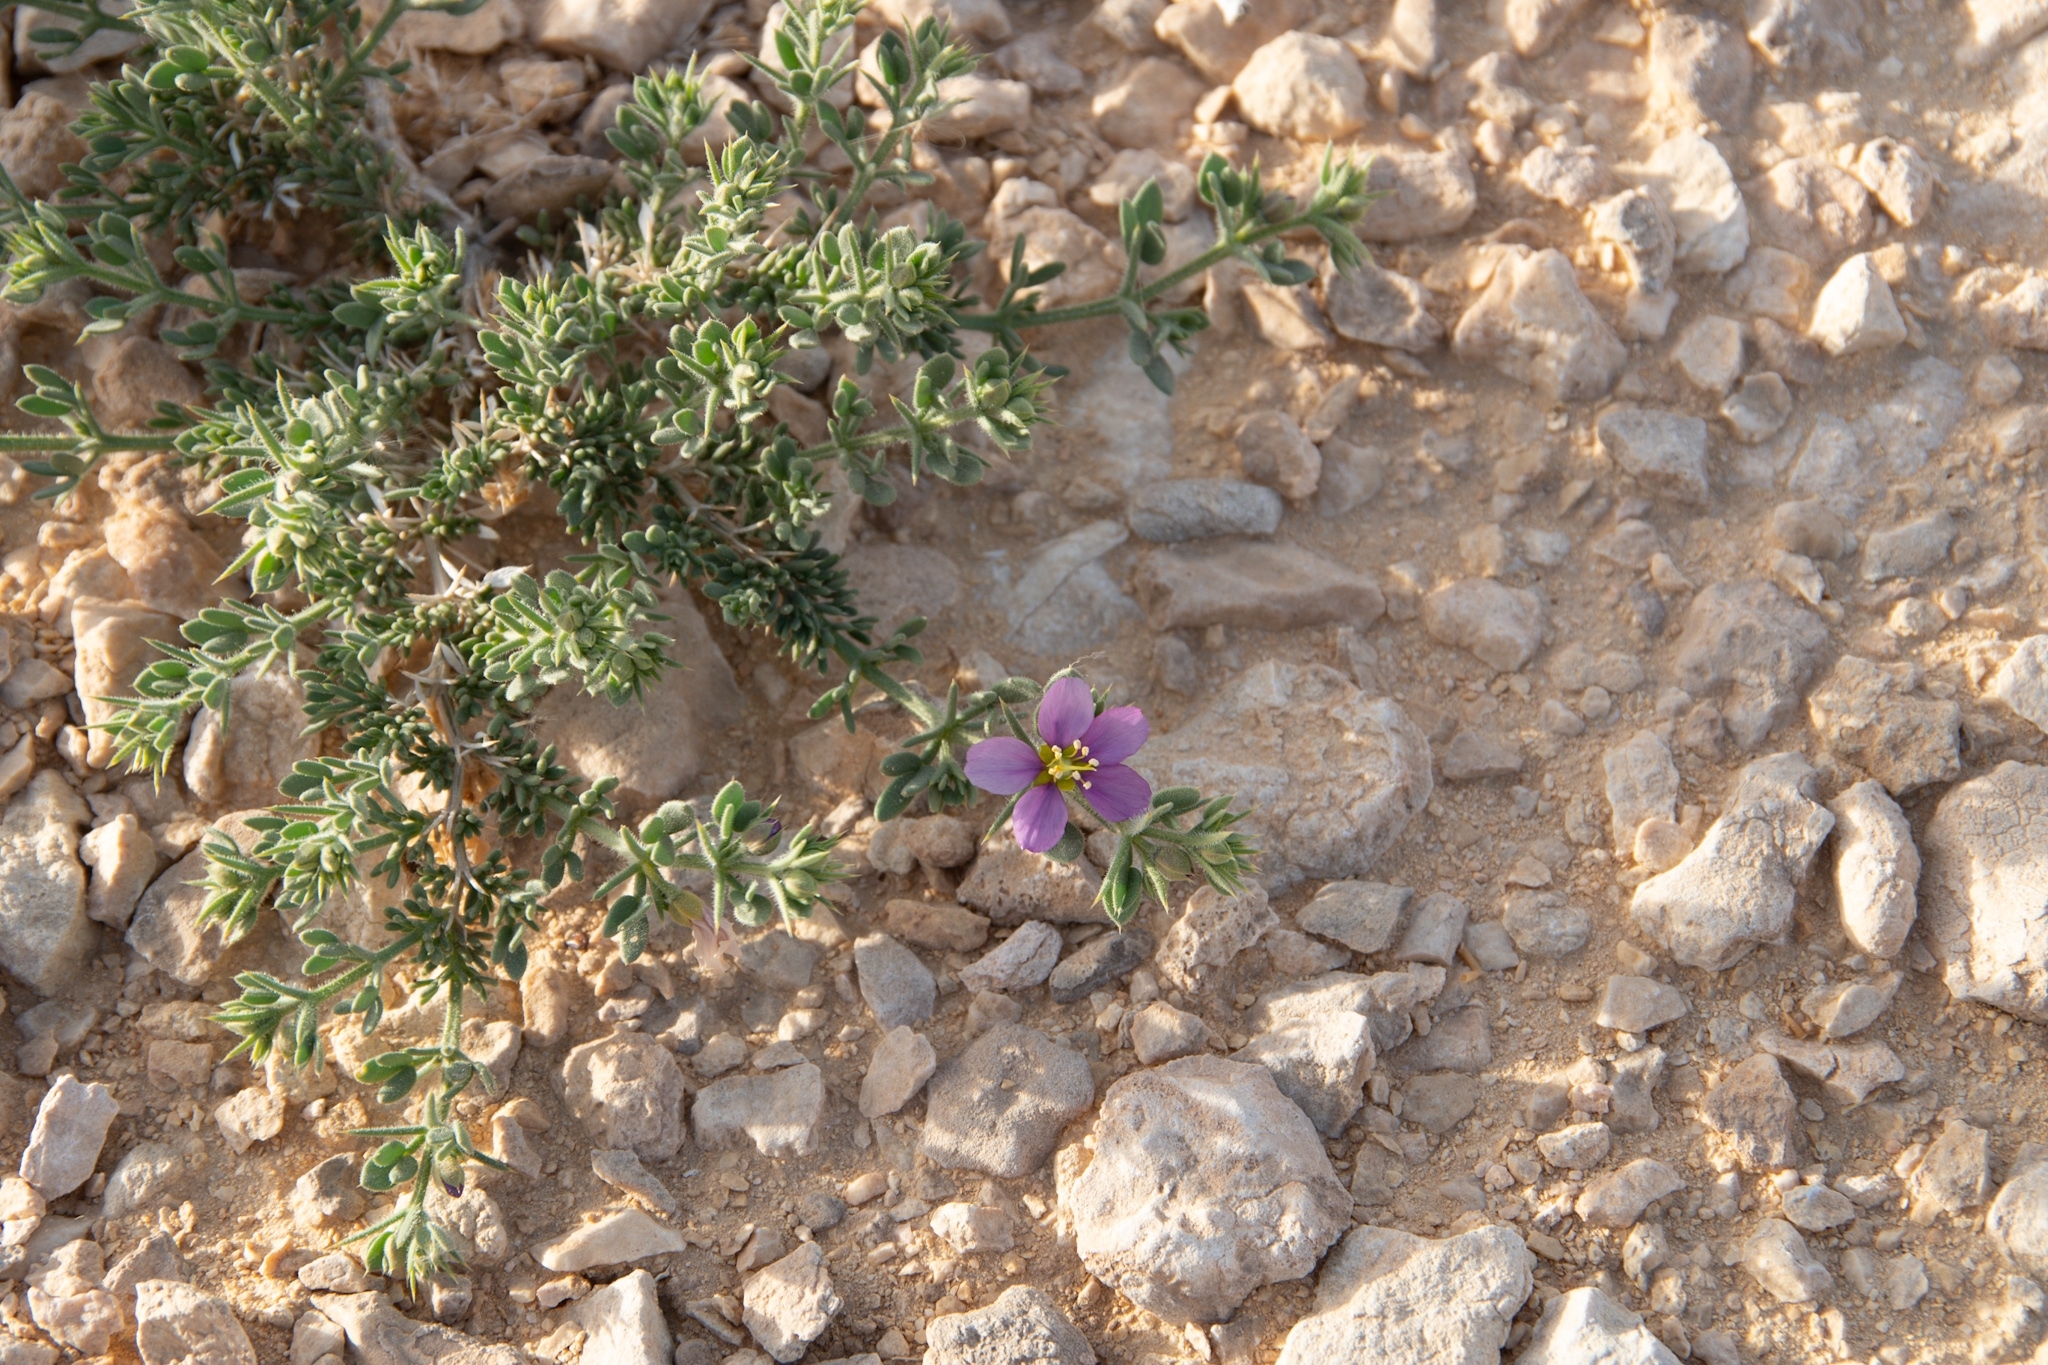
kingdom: Plantae
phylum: Tracheophyta
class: Magnoliopsida
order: Zygophyllales
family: Zygophyllaceae
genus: Fagonia
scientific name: Fagonia mollis
